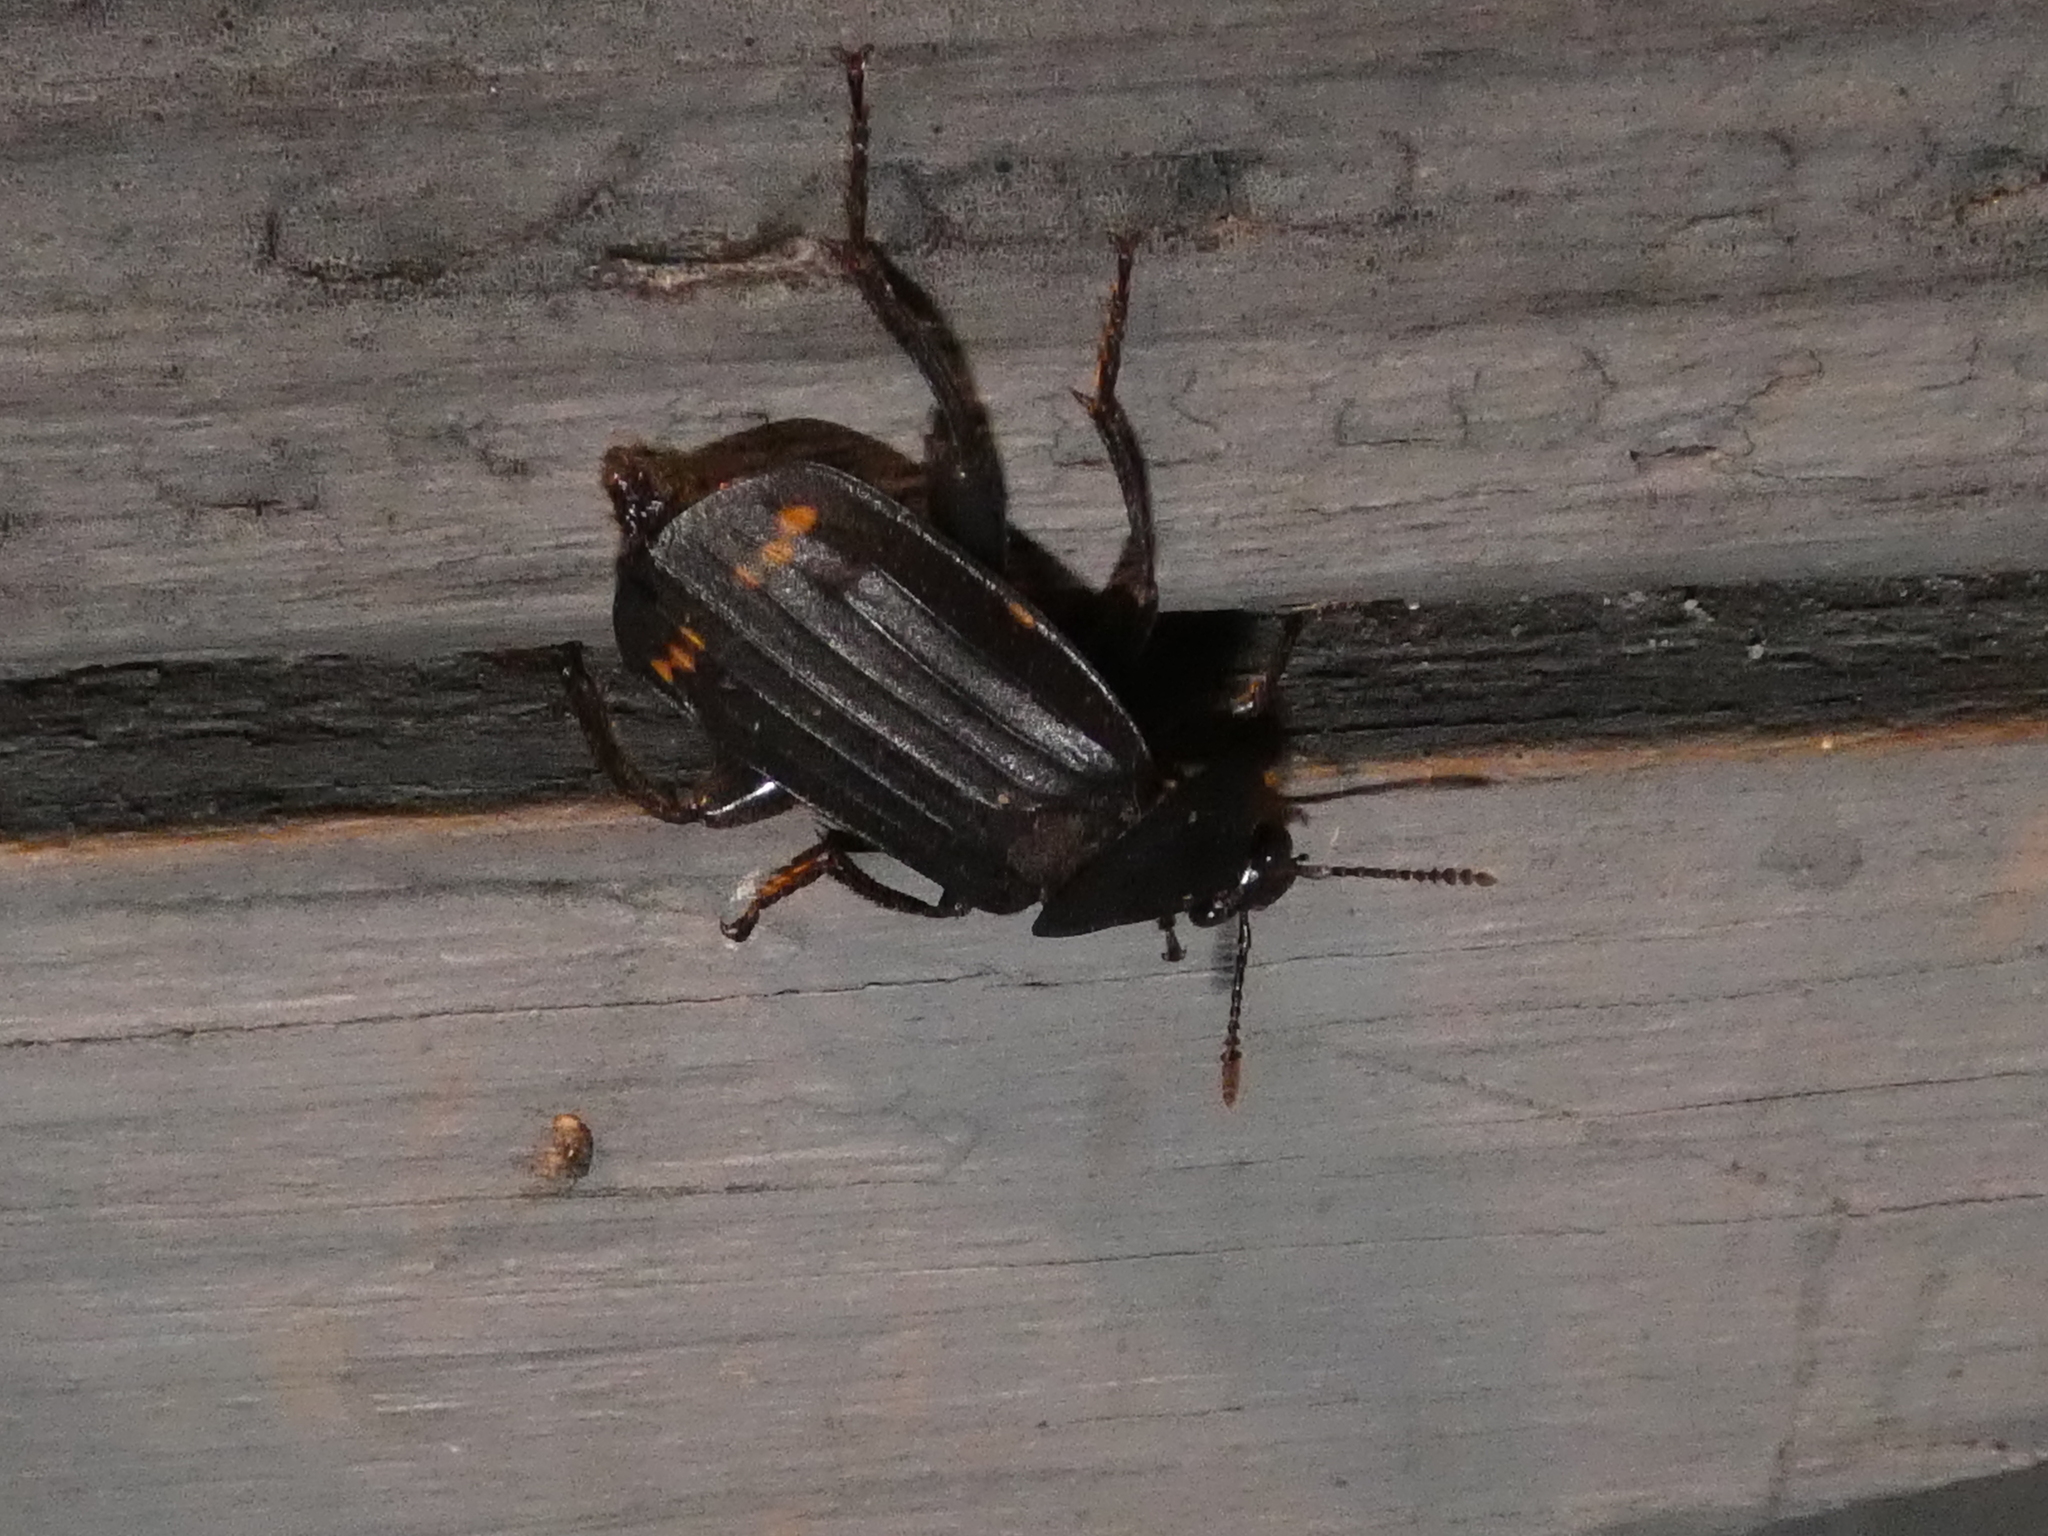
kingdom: Animalia
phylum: Arthropoda
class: Insecta
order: Coleoptera
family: Staphylinidae
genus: Necrodes
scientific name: Necrodes surinamensis
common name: Red-lined carrion beetle
